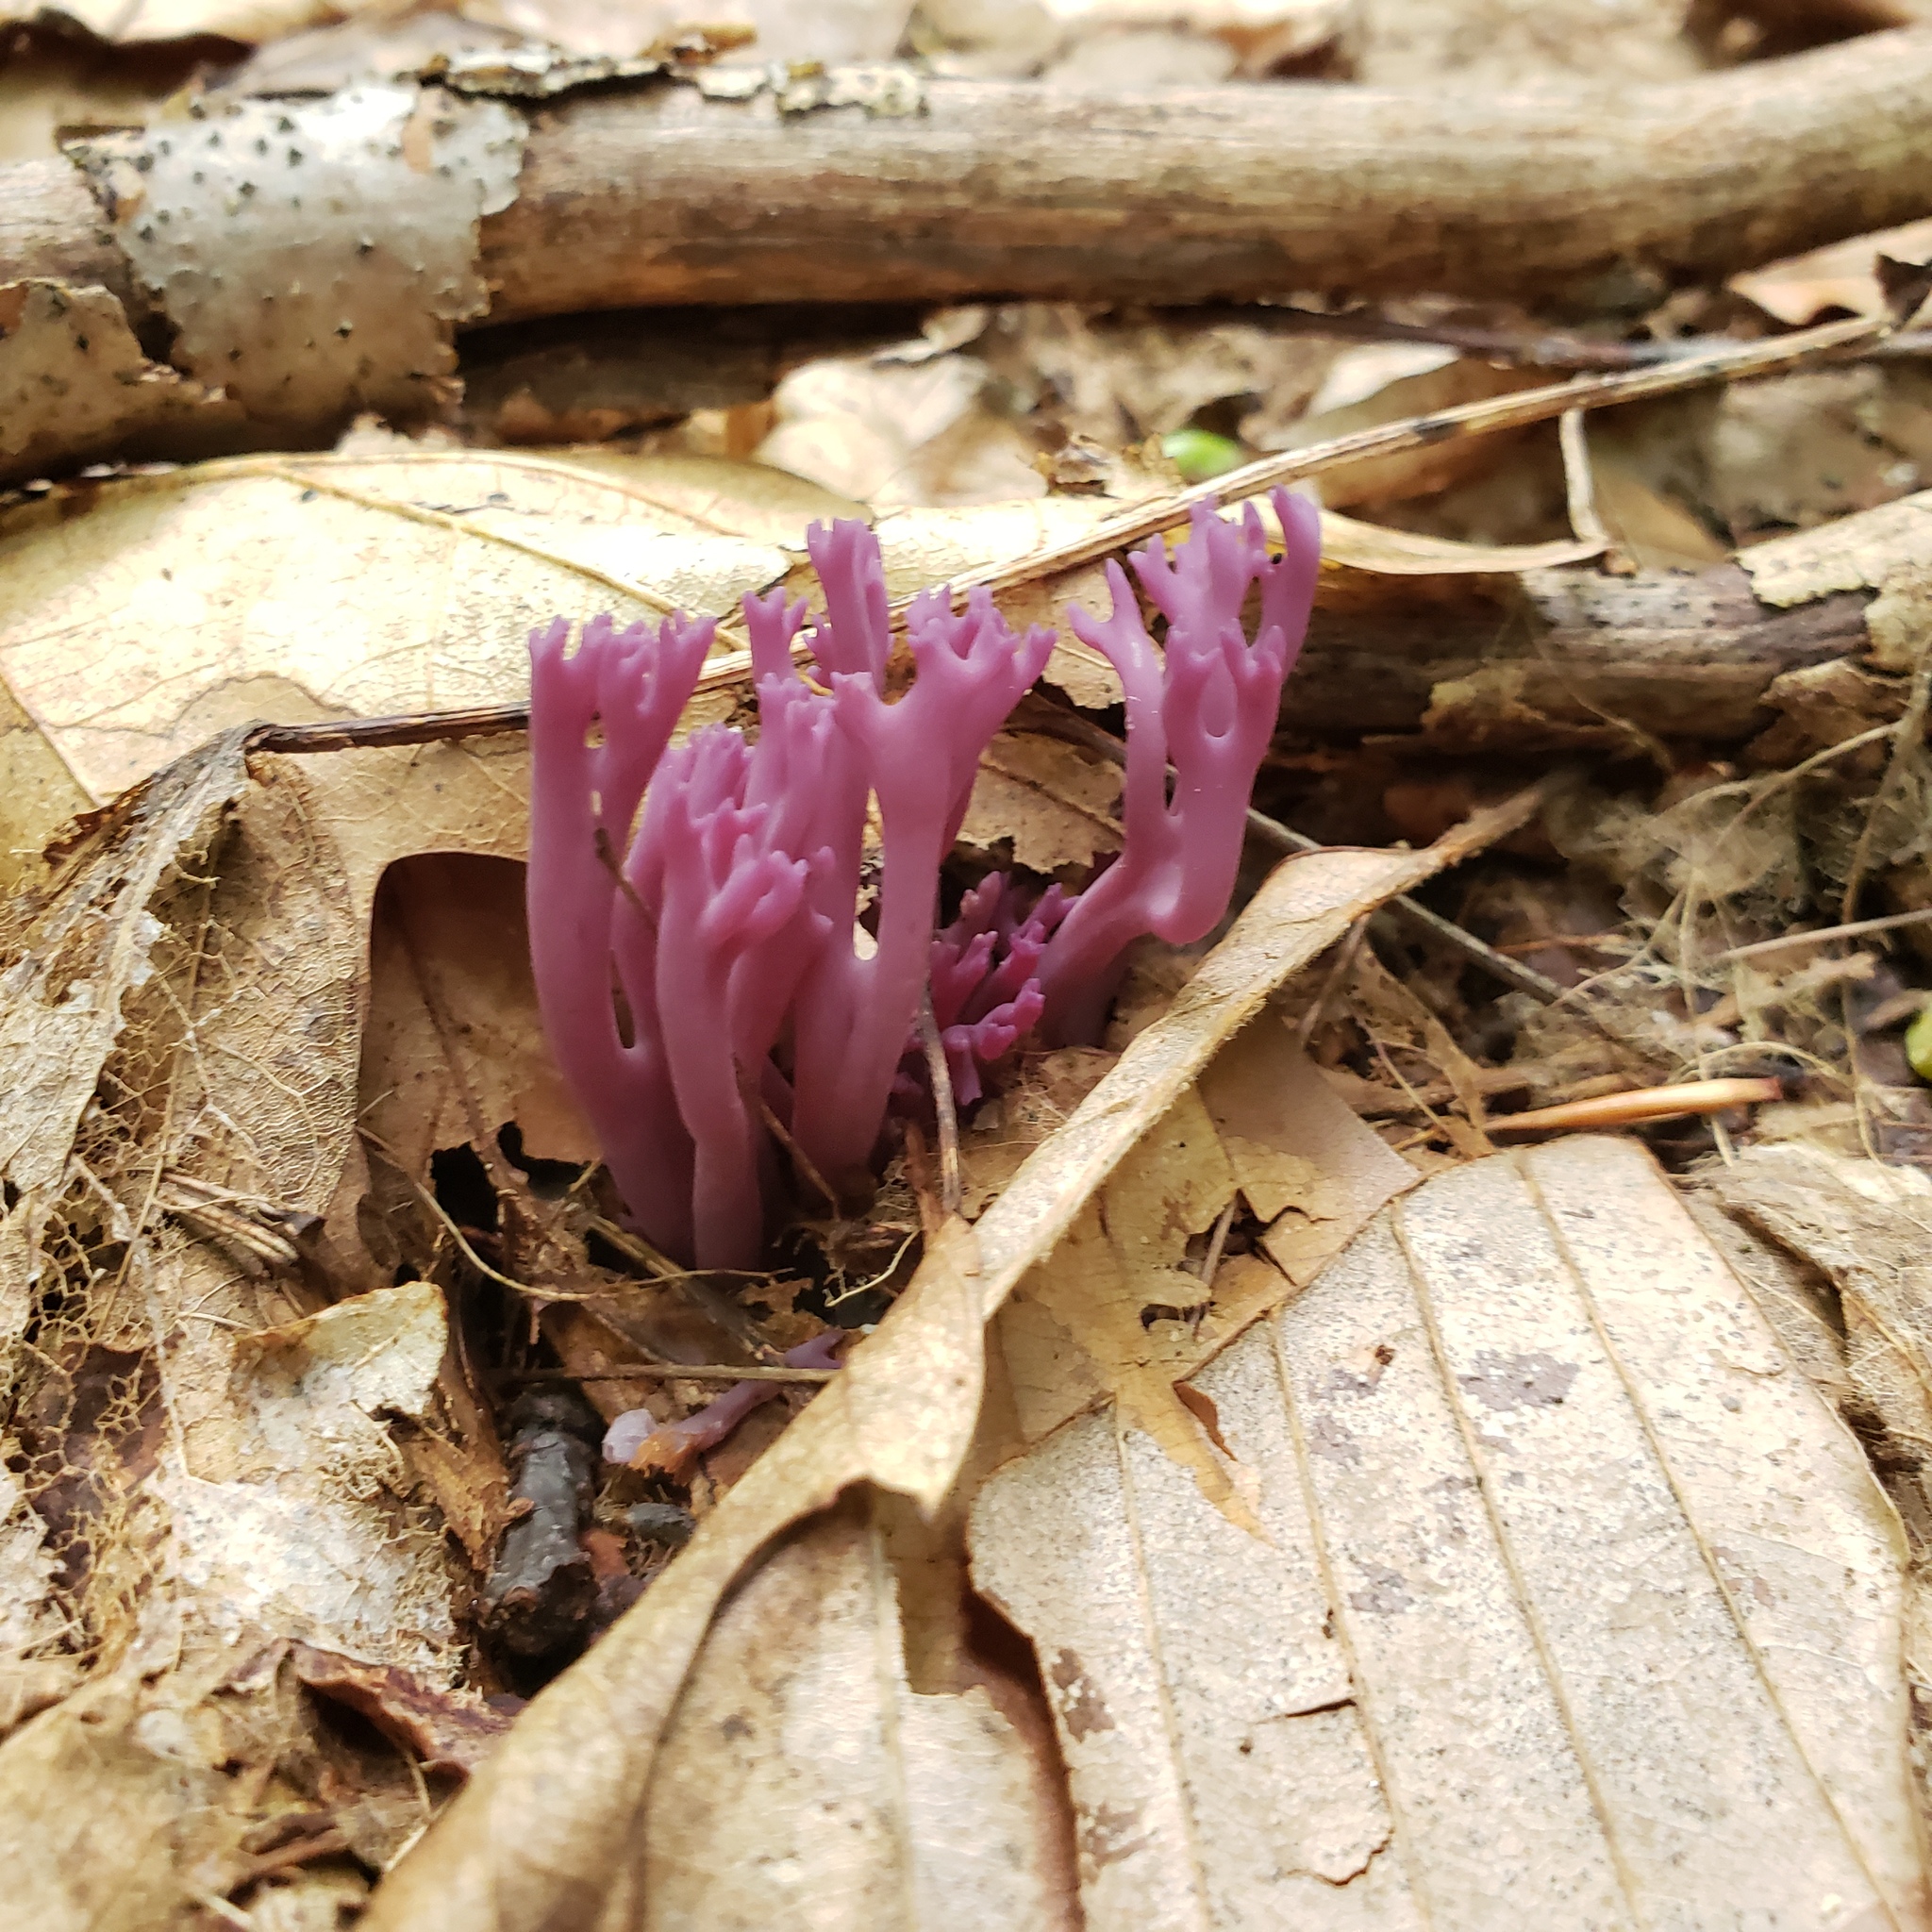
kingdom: Fungi
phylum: Basidiomycota
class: Agaricomycetes
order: Agaricales
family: Clavariaceae
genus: Clavaria
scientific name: Clavaria zollingeri
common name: Violet coral
